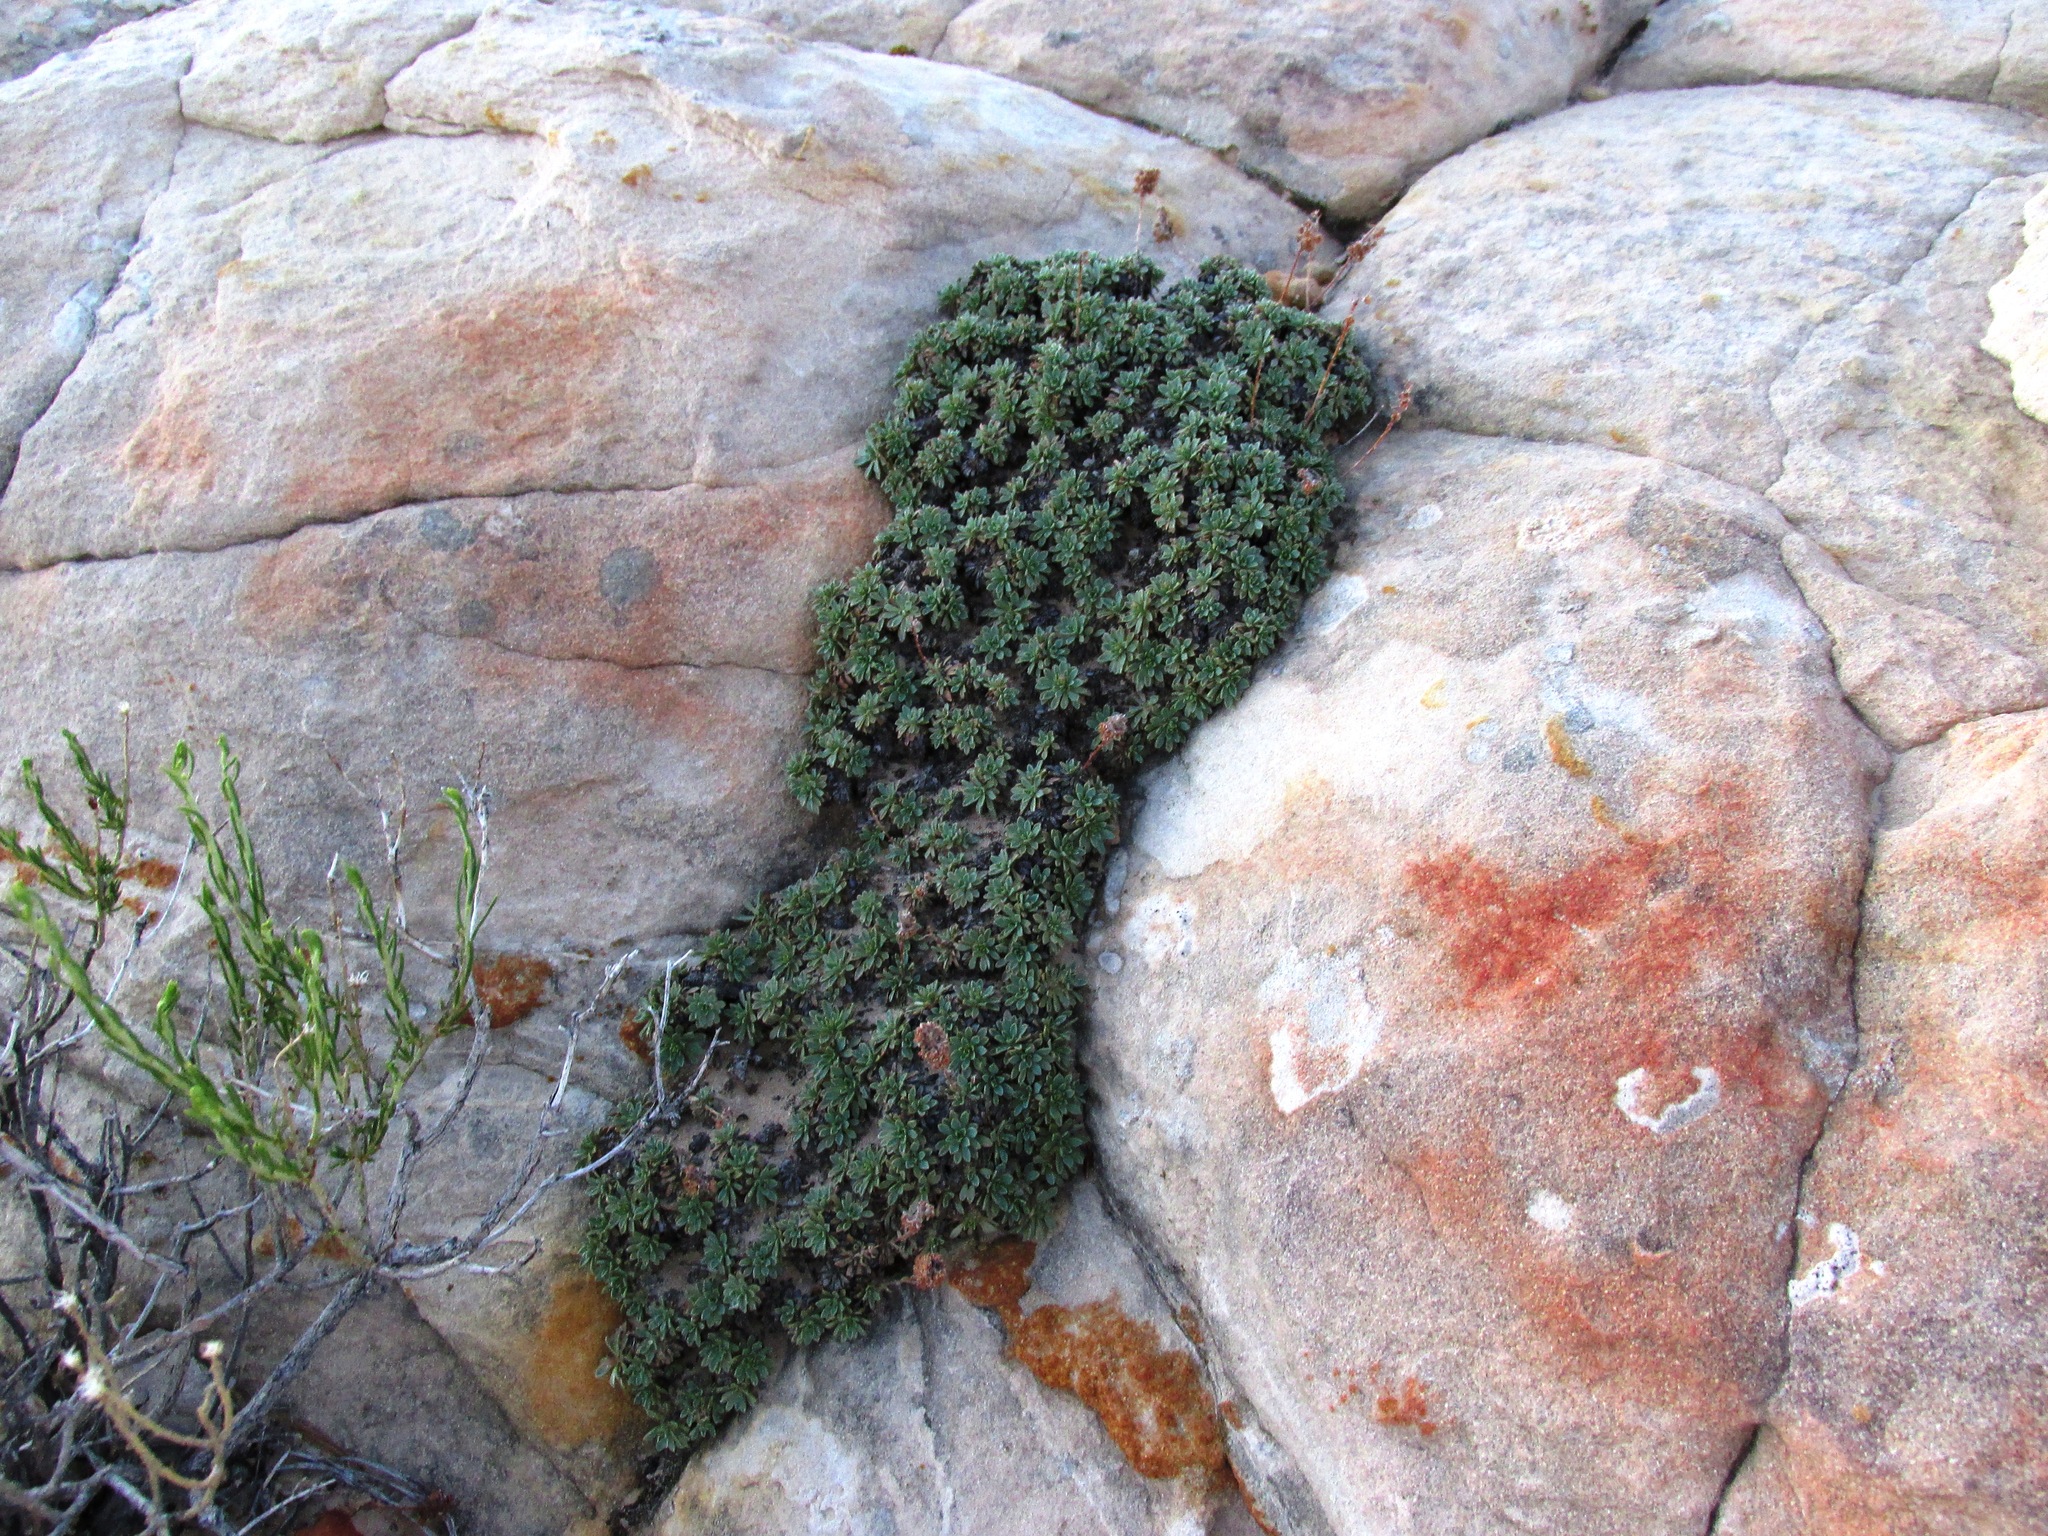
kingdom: Plantae
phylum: Tracheophyta
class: Magnoliopsida
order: Rosales
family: Rosaceae
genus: Petrophytum
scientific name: Petrophytum caespitosum
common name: Mat rockspirea
